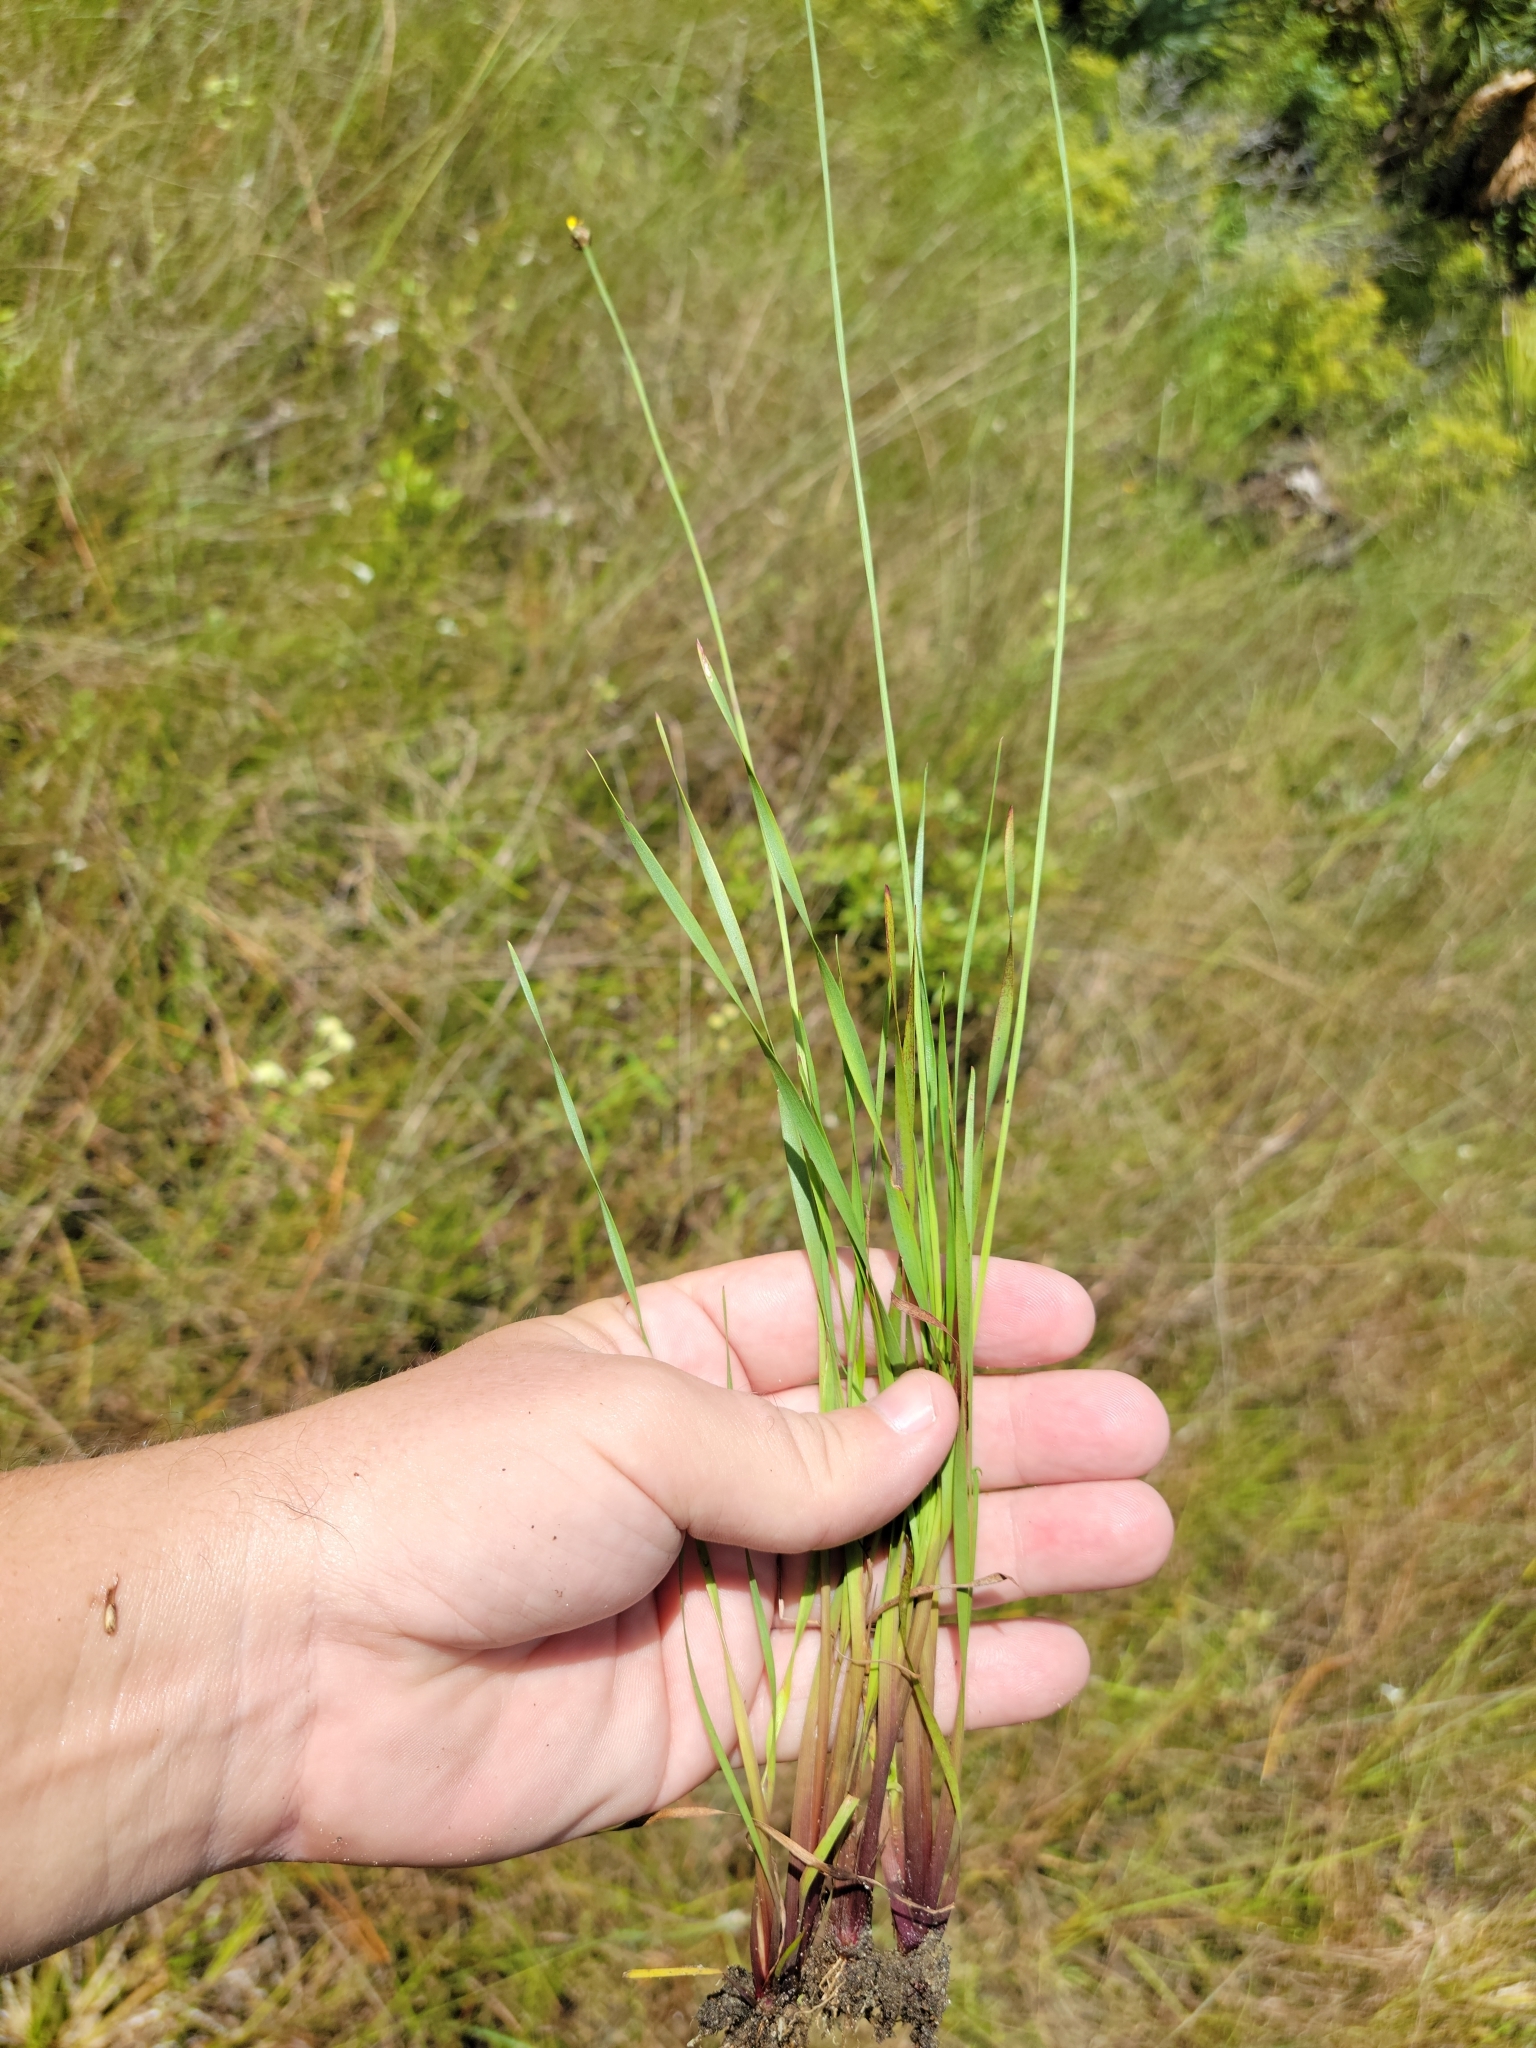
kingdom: Plantae
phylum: Tracheophyta
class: Liliopsida
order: Poales
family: Xyridaceae
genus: Xyris
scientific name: Xyris calcicola
